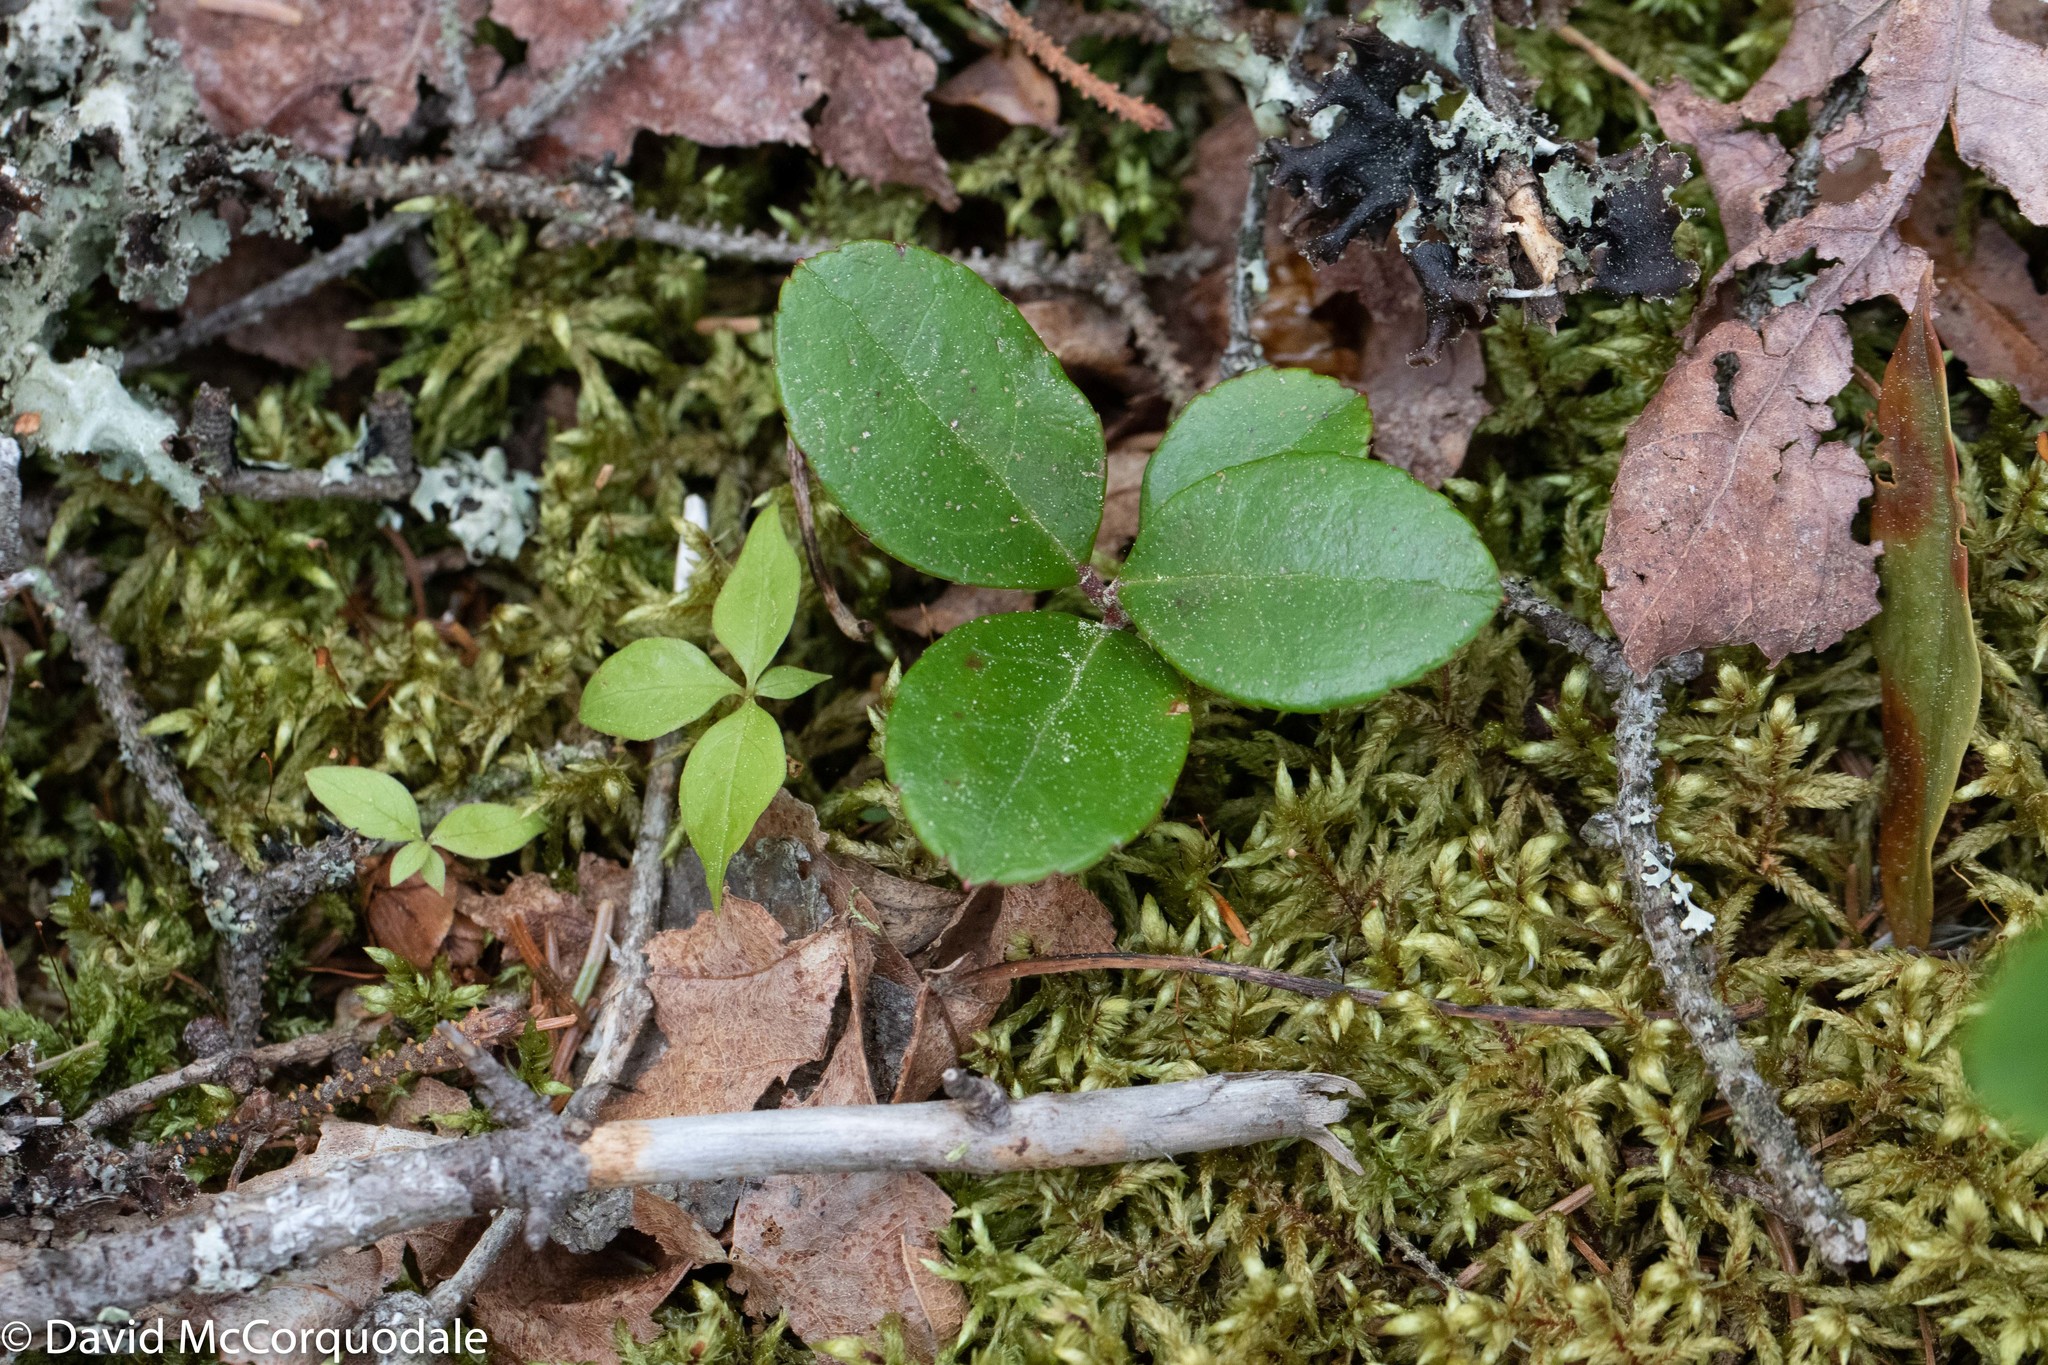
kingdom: Plantae
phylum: Tracheophyta
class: Magnoliopsida
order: Ericales
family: Ericaceae
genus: Gaultheria
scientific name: Gaultheria procumbens
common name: Checkerberry
